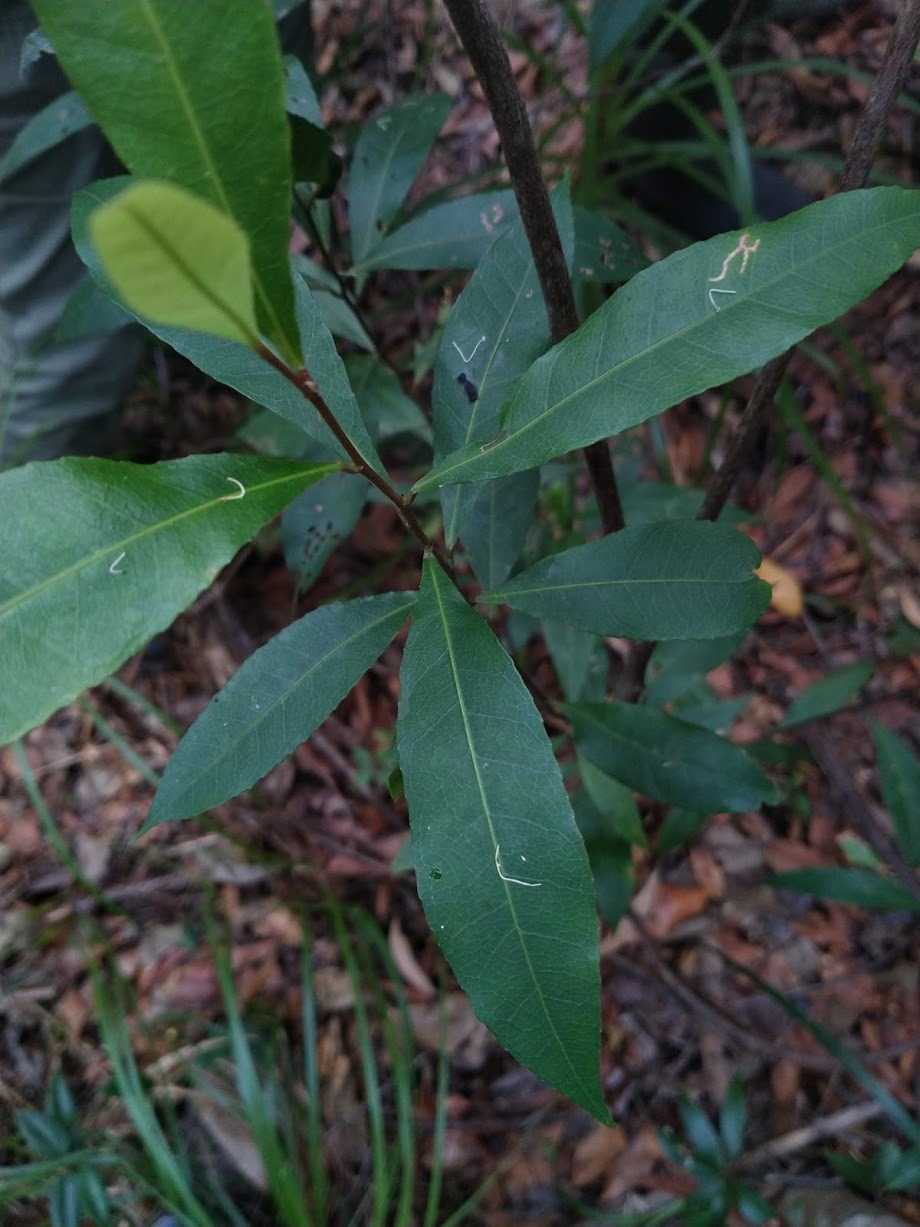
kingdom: Plantae
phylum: Tracheophyta
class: Magnoliopsida
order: Oxalidales
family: Elaeocarpaceae
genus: Elaeocarpus
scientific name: Elaeocarpus reticulatus
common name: Ash quandong
